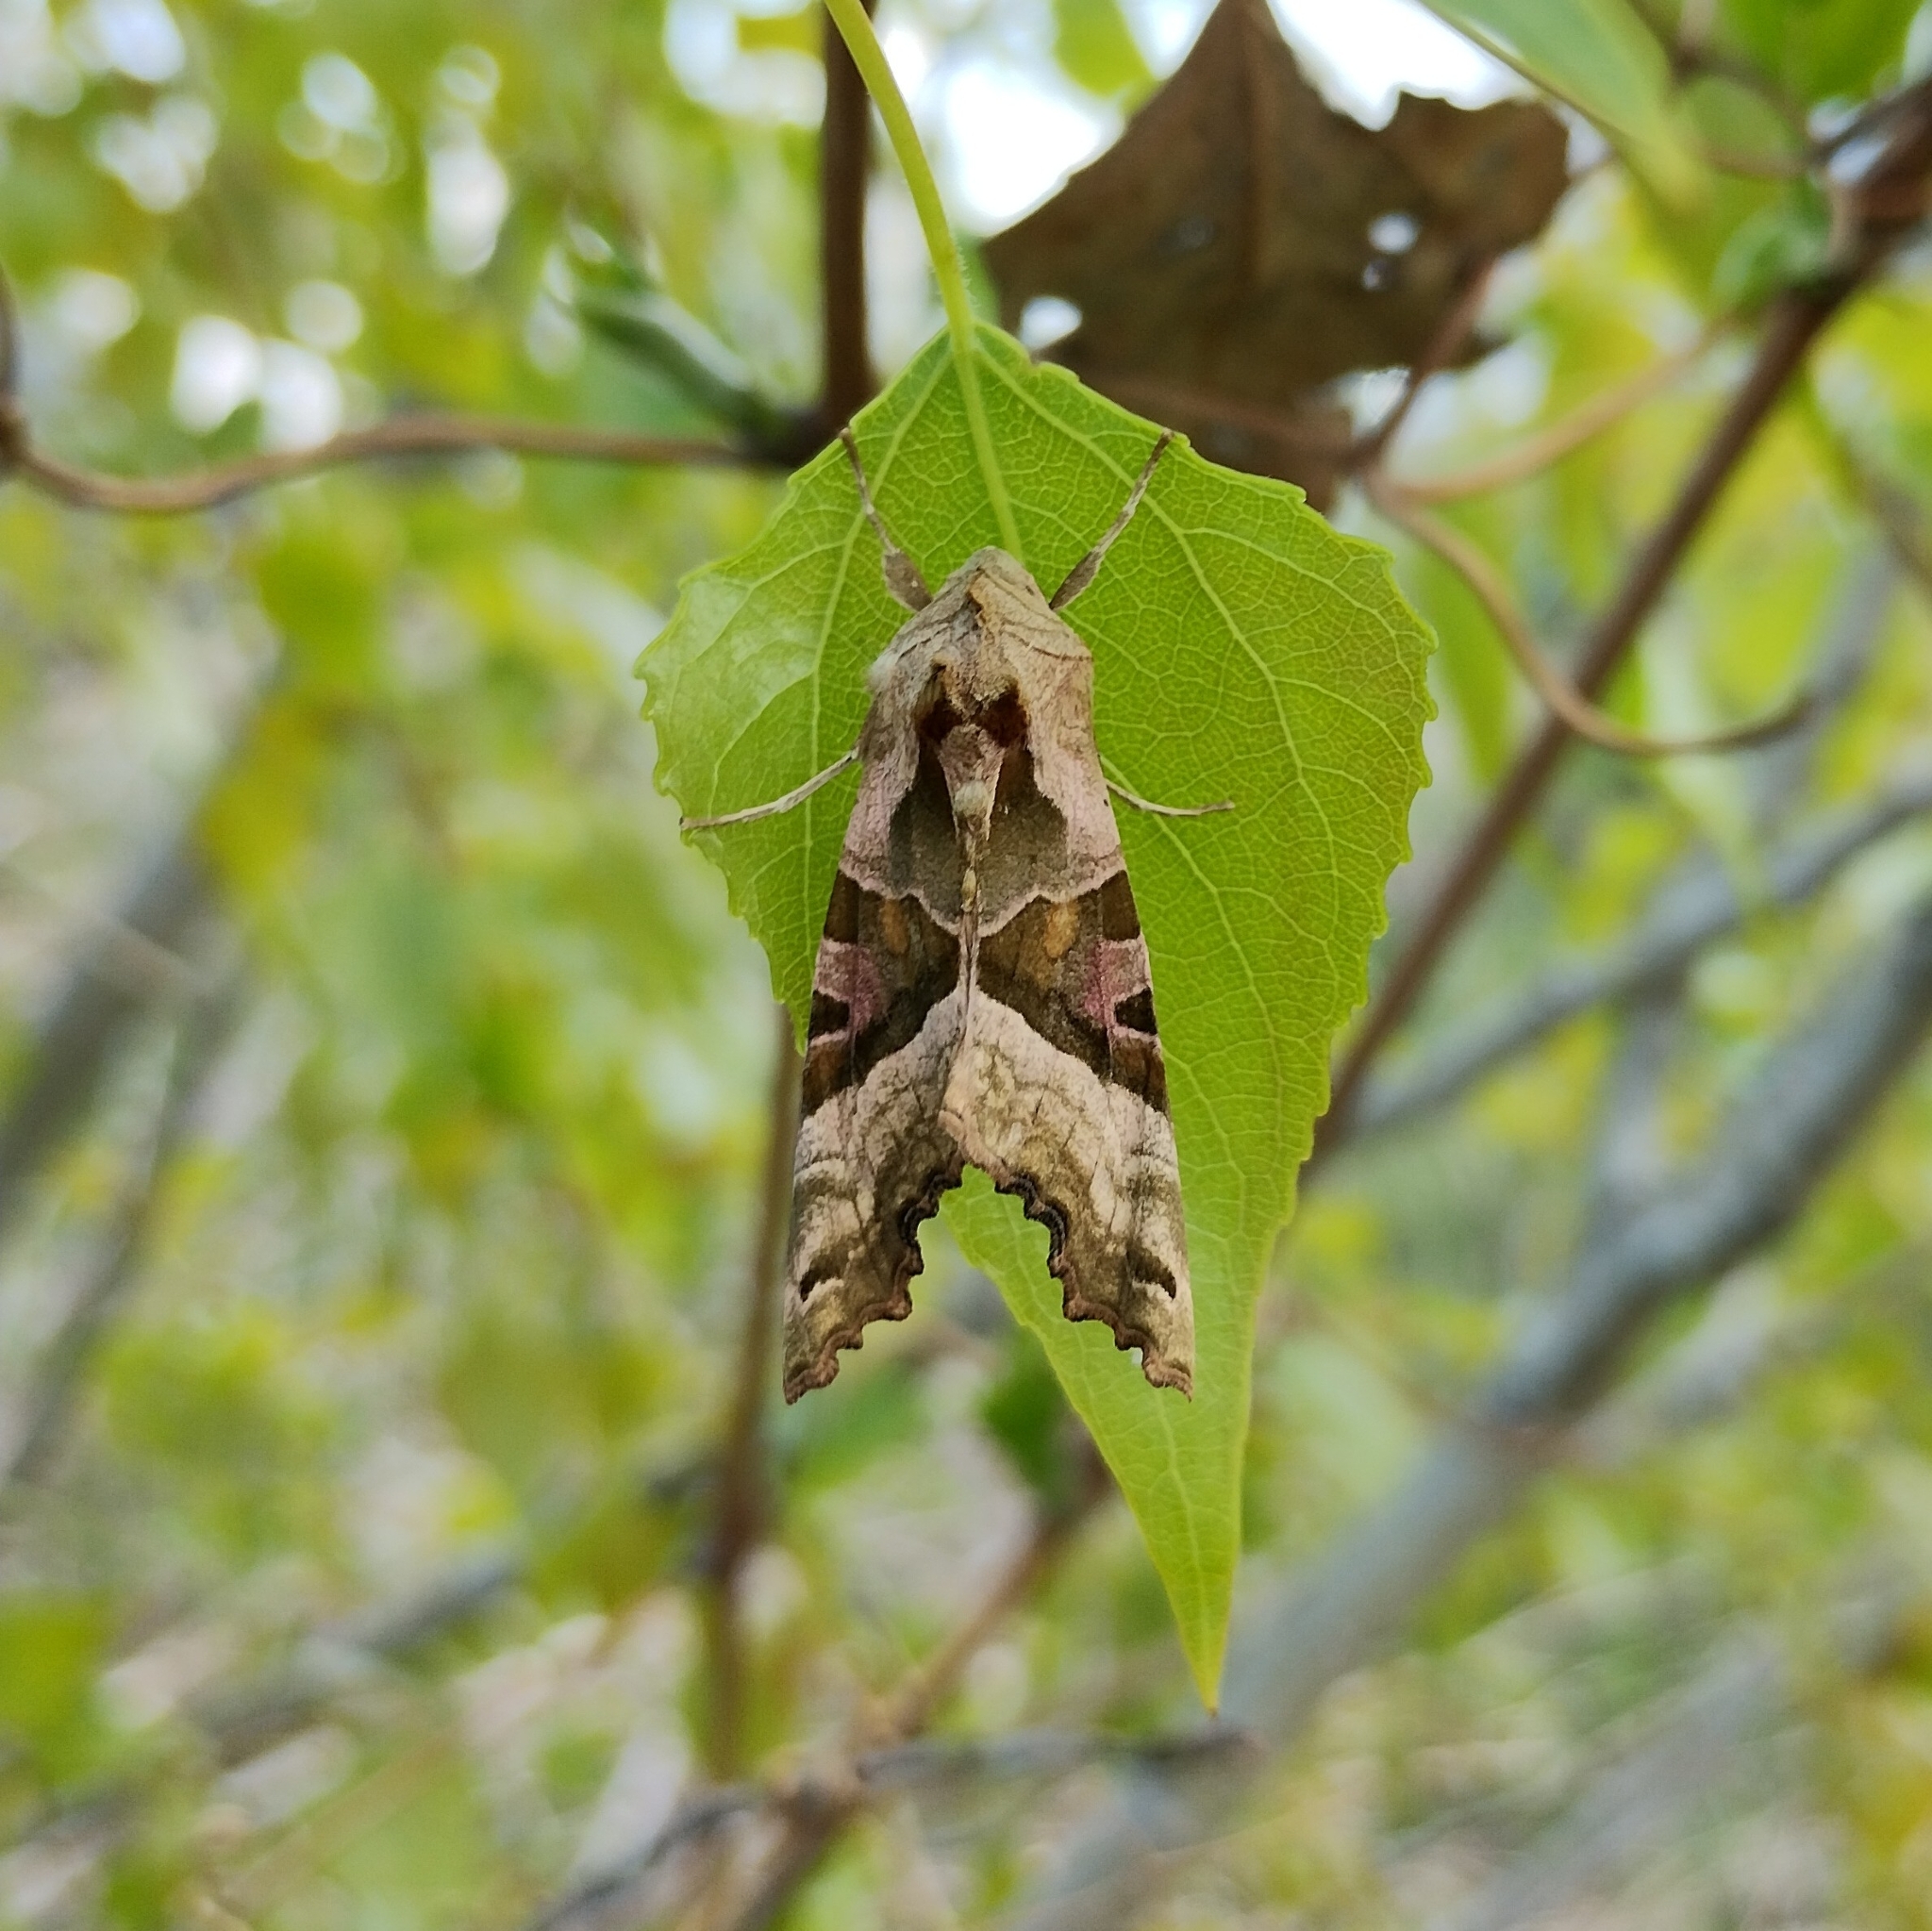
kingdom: Animalia
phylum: Arthropoda
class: Insecta
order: Lepidoptera
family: Noctuidae
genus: Phlogophora
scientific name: Phlogophora meticulosa
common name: Angle shades
